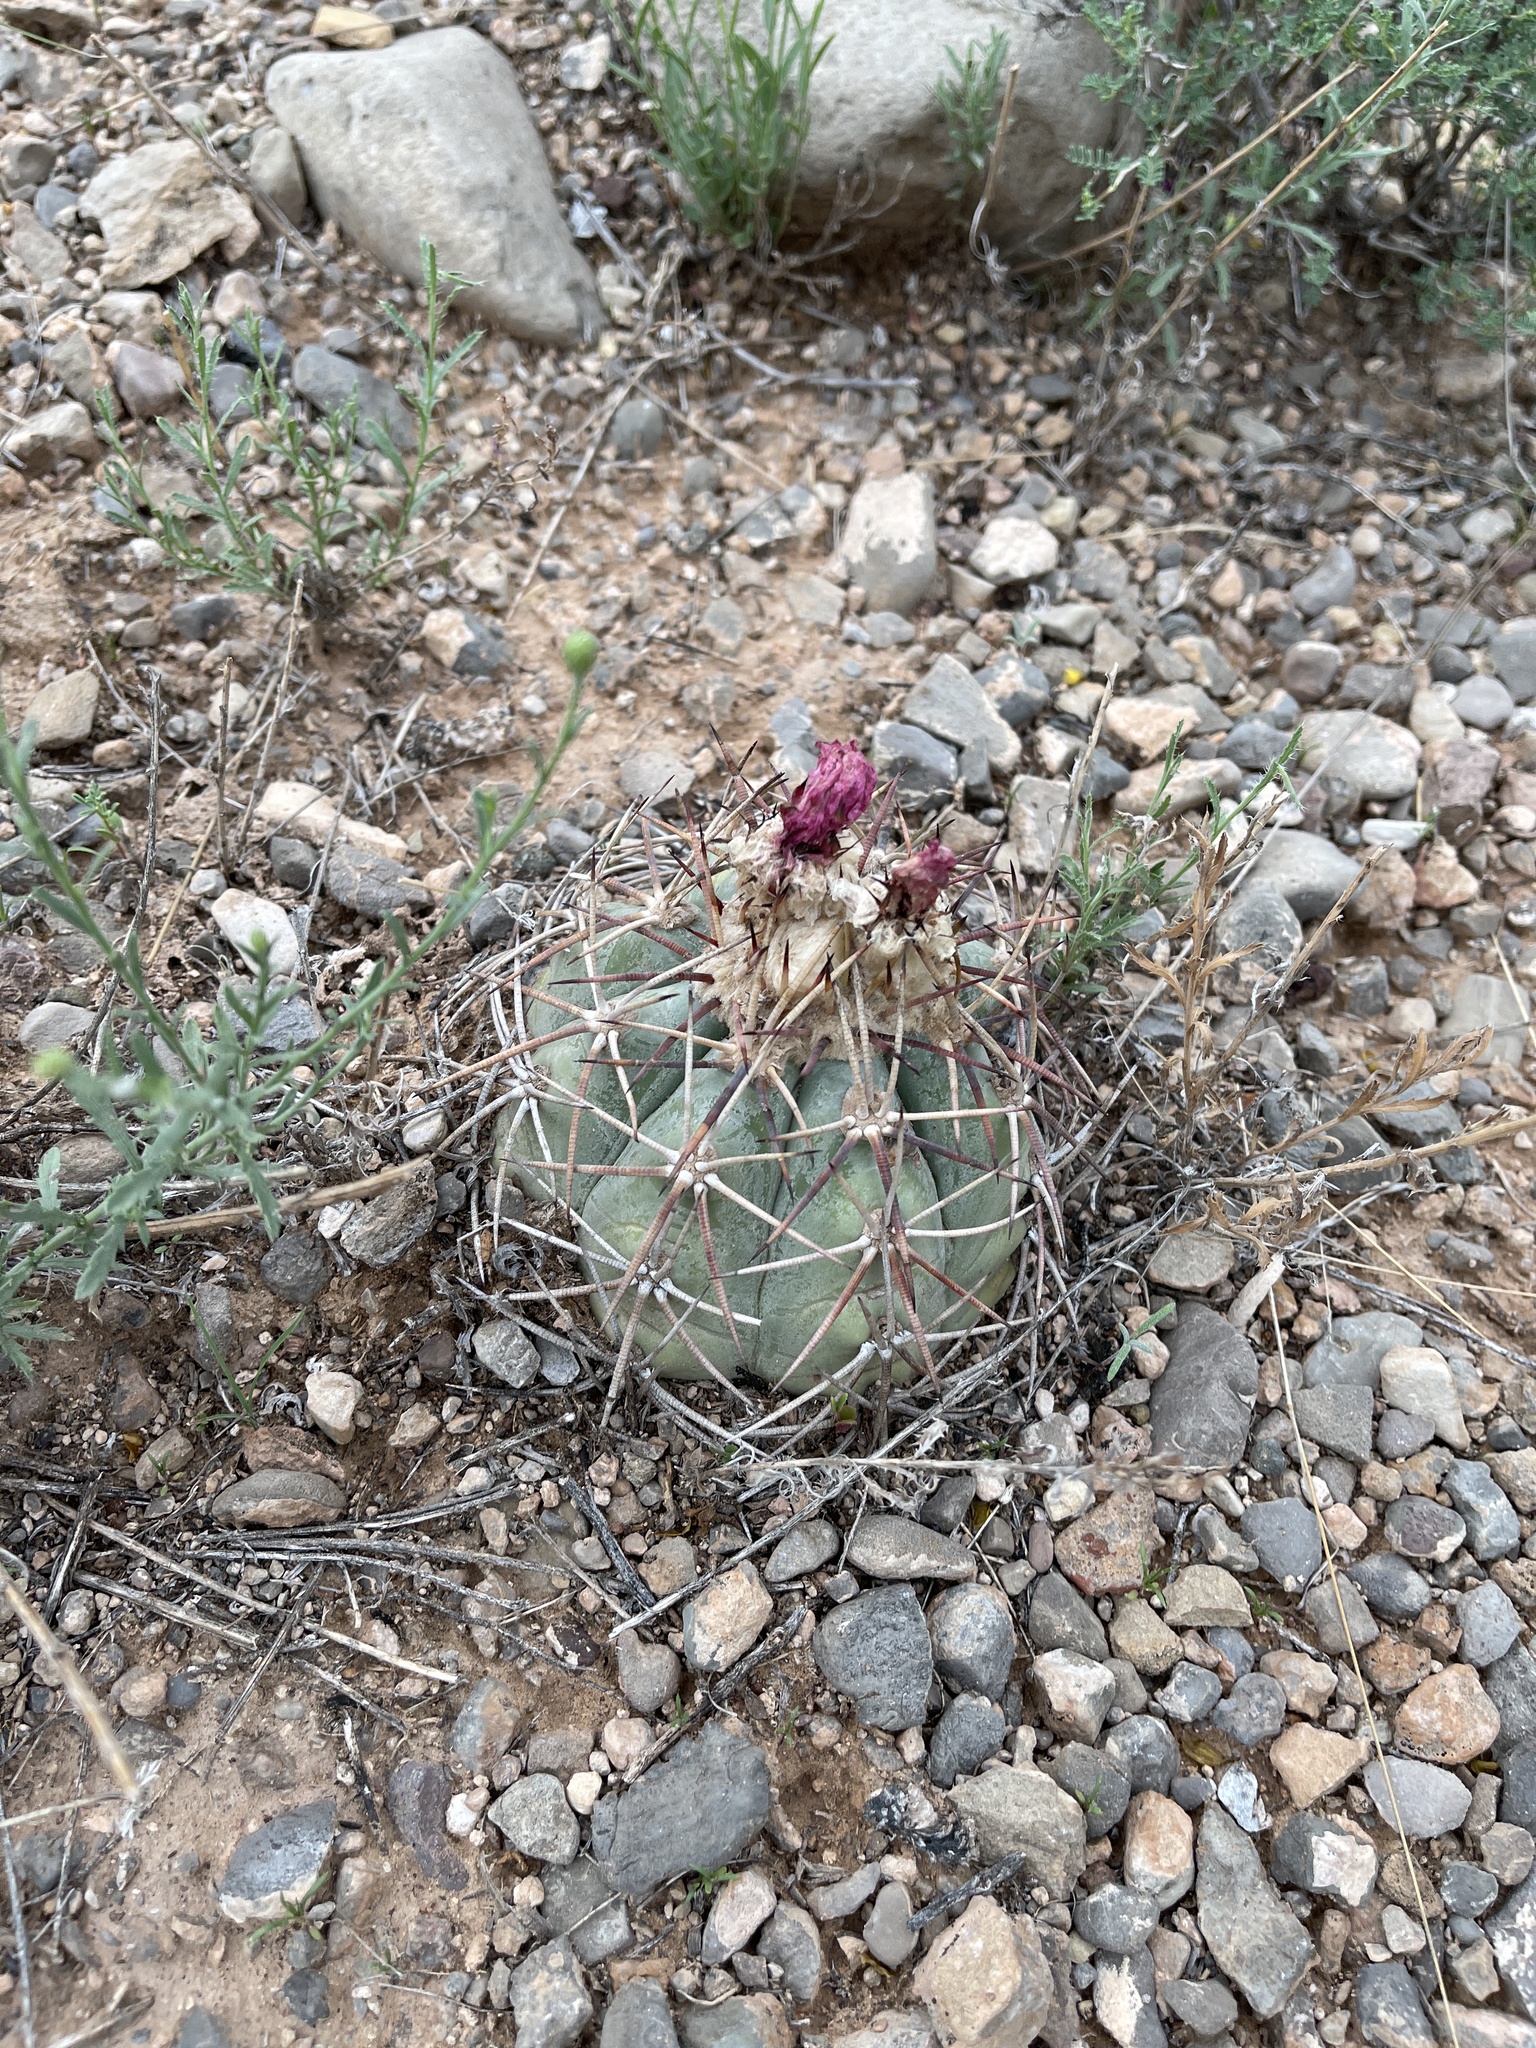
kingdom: Plantae
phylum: Tracheophyta
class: Magnoliopsida
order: Caryophyllales
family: Cactaceae
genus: Echinocactus
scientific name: Echinocactus horizonthalonius
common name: Devilshead
